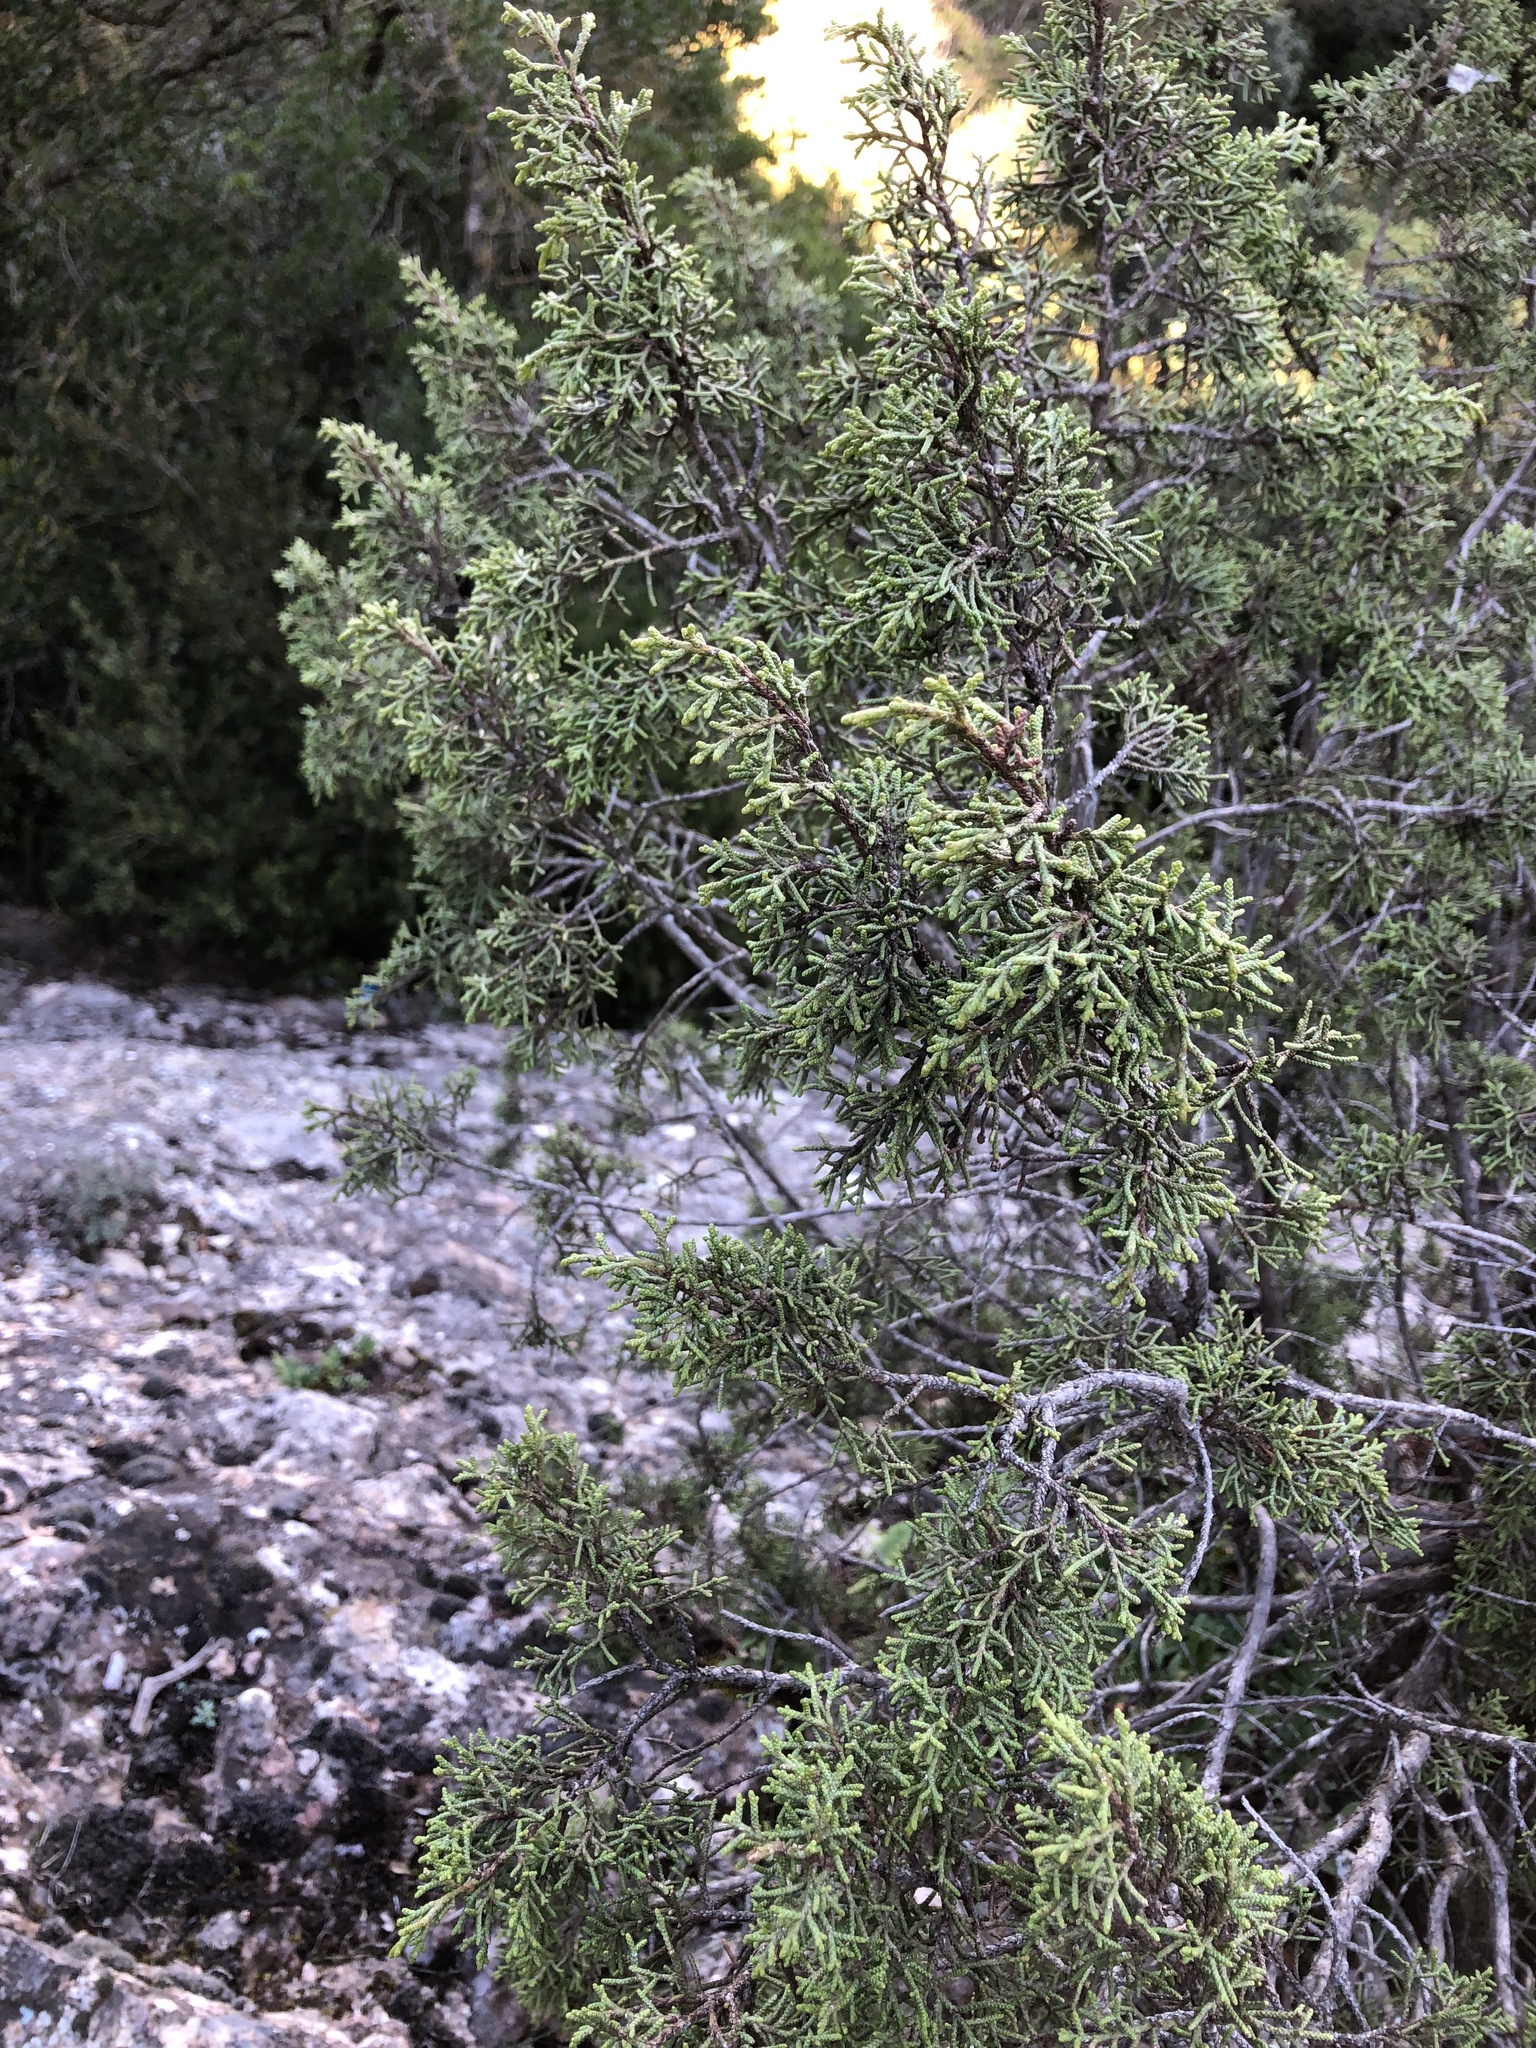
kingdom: Plantae
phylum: Tracheophyta
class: Pinopsida
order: Pinales
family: Cupressaceae
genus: Juniperus
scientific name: Juniperus phoenicea
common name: Phoenician juniper
